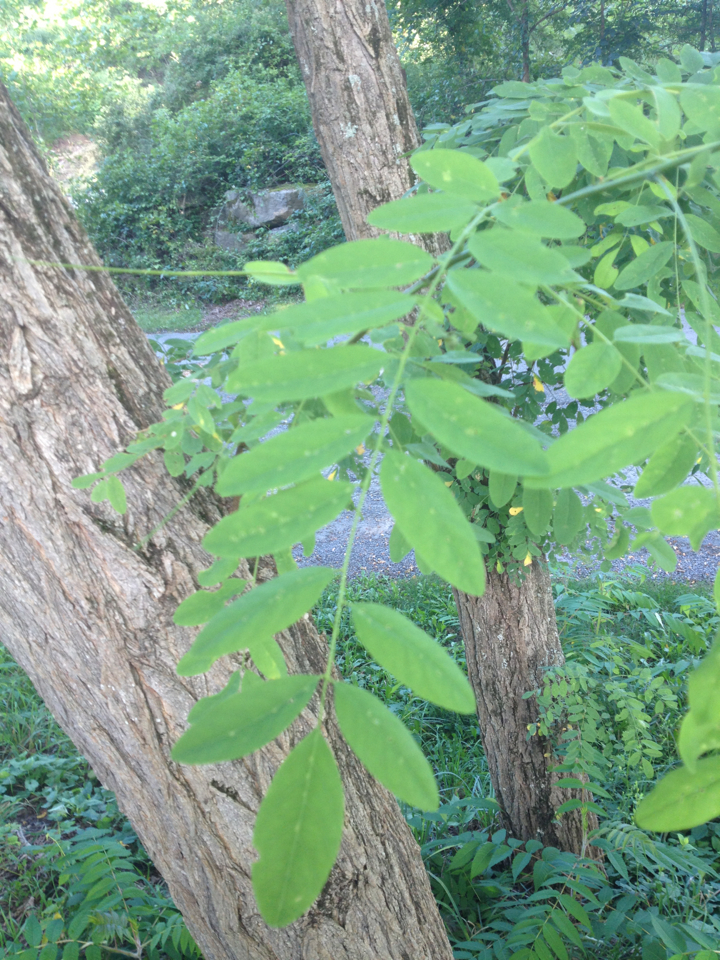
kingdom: Plantae
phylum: Tracheophyta
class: Magnoliopsida
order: Fabales
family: Fabaceae
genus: Robinia
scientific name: Robinia pseudoacacia
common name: Black locust
